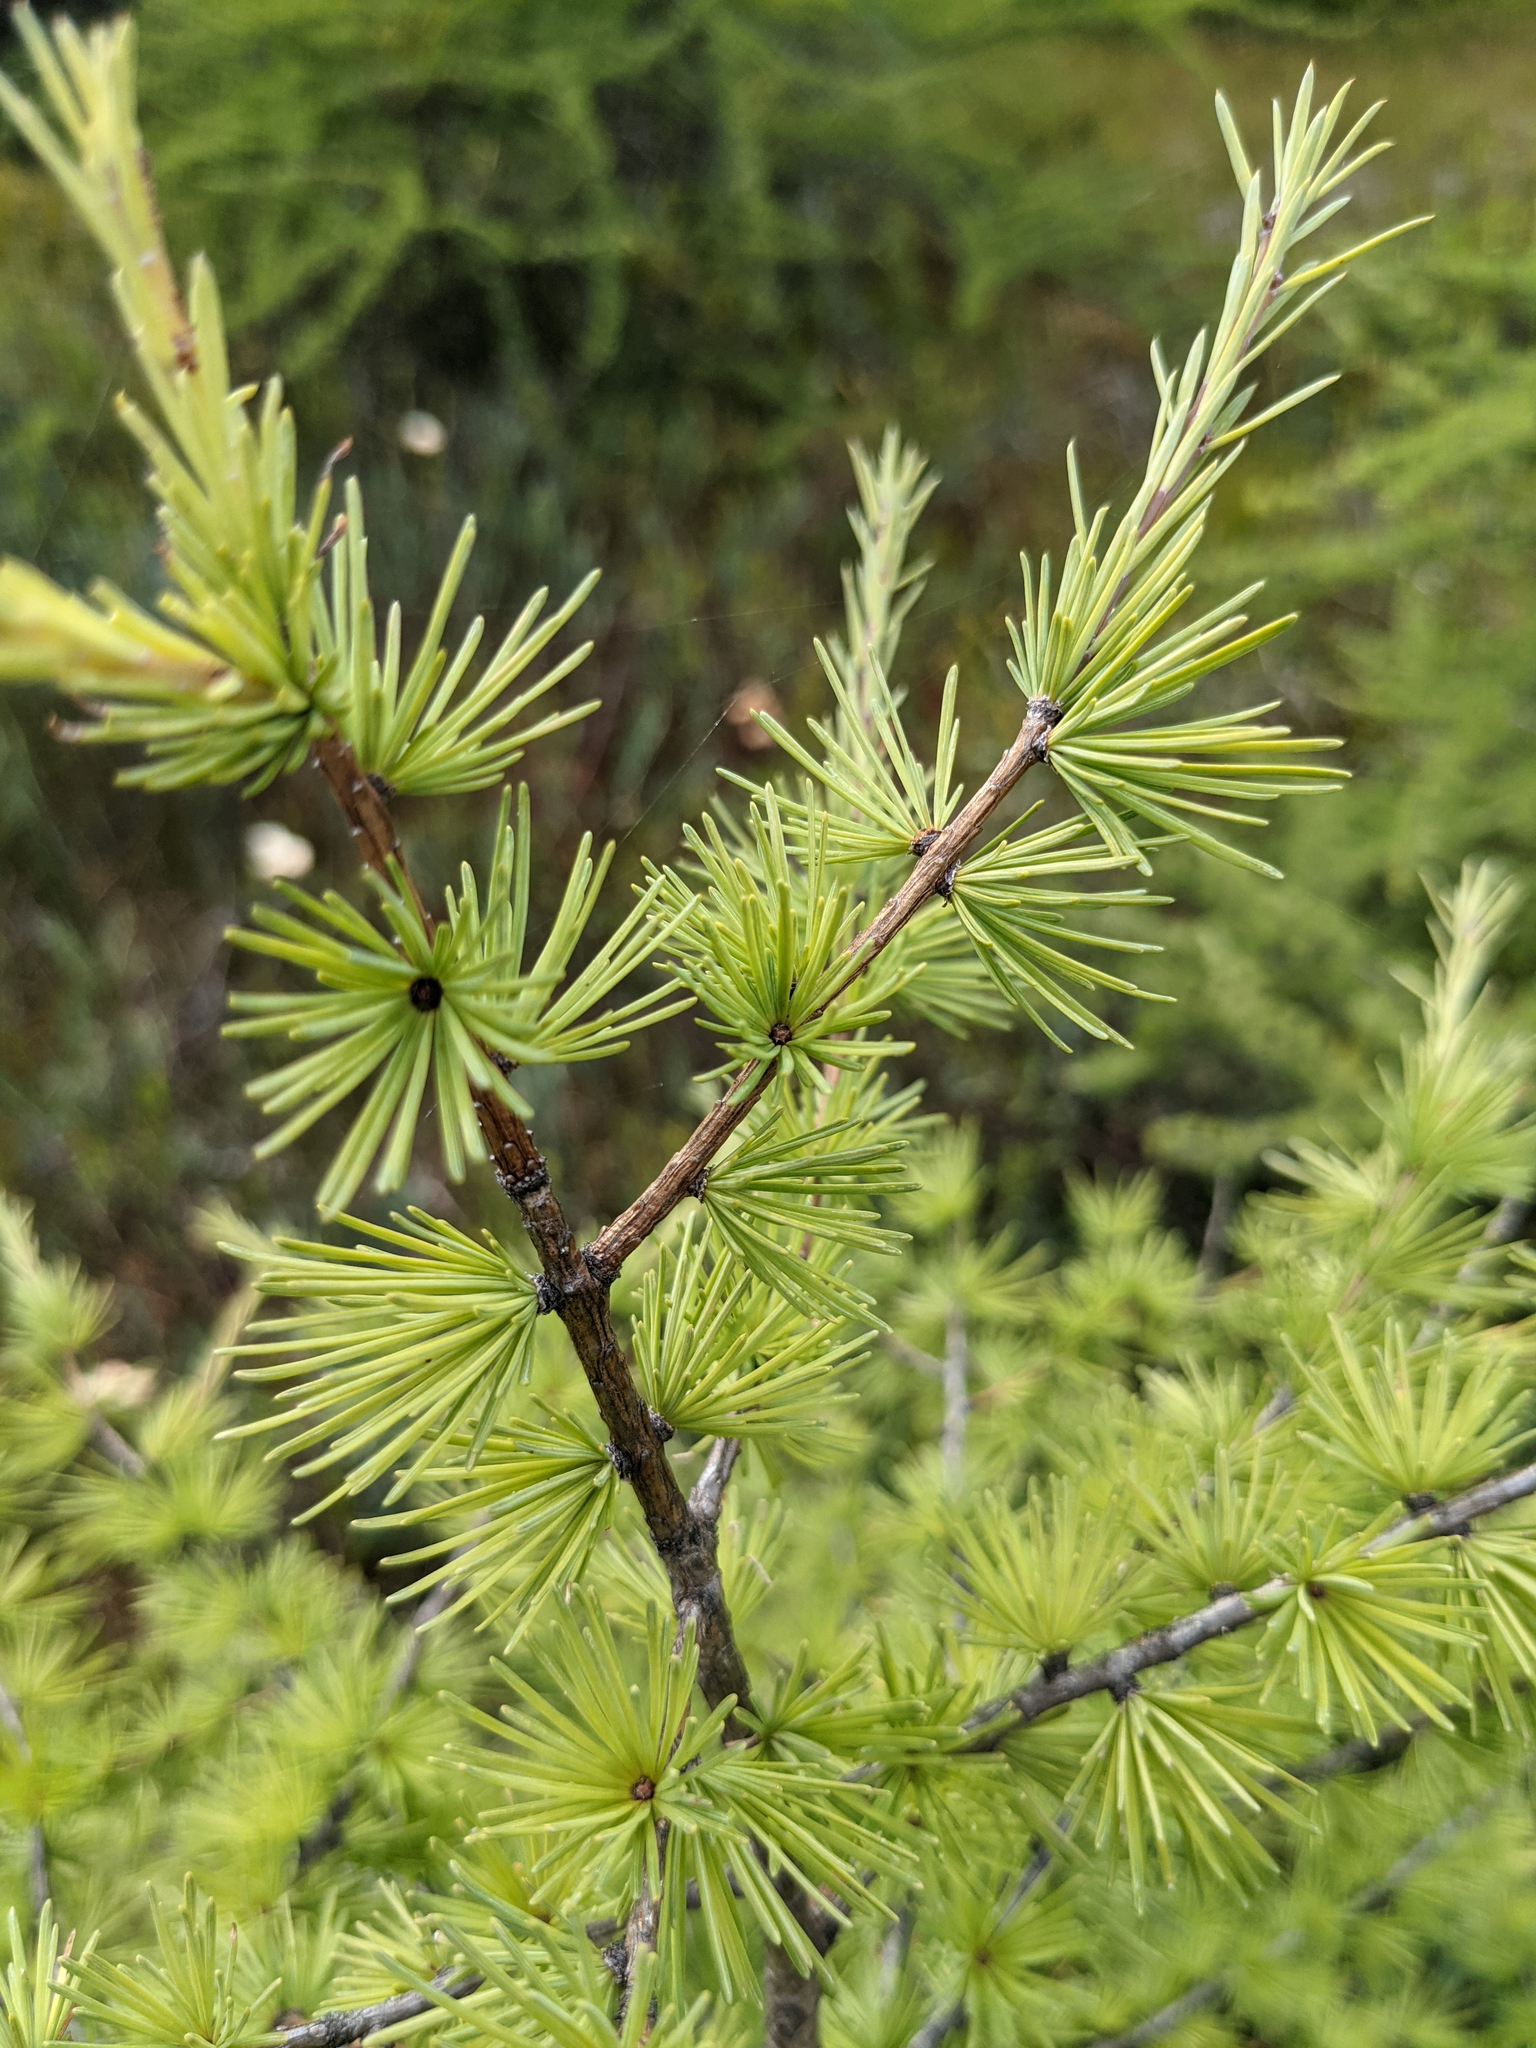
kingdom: Plantae
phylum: Tracheophyta
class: Pinopsida
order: Pinales
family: Pinaceae
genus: Larix
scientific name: Larix laricina
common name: American larch
